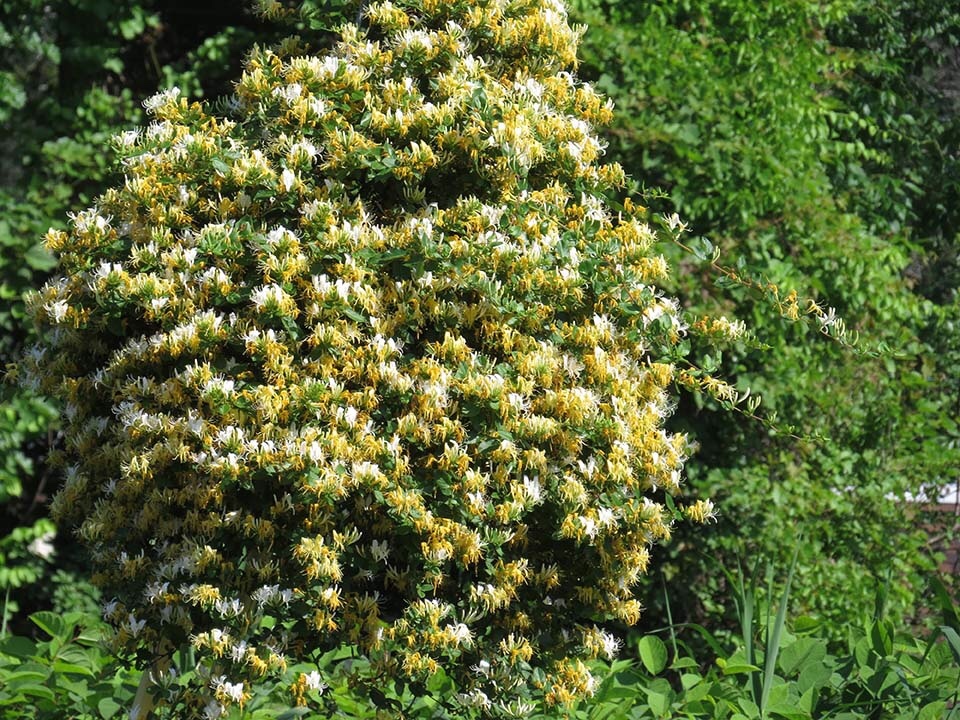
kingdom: Plantae
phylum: Tracheophyta
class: Magnoliopsida
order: Dipsacales
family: Caprifoliaceae
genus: Lonicera
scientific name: Lonicera japonica
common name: Japanese honeysuckle
